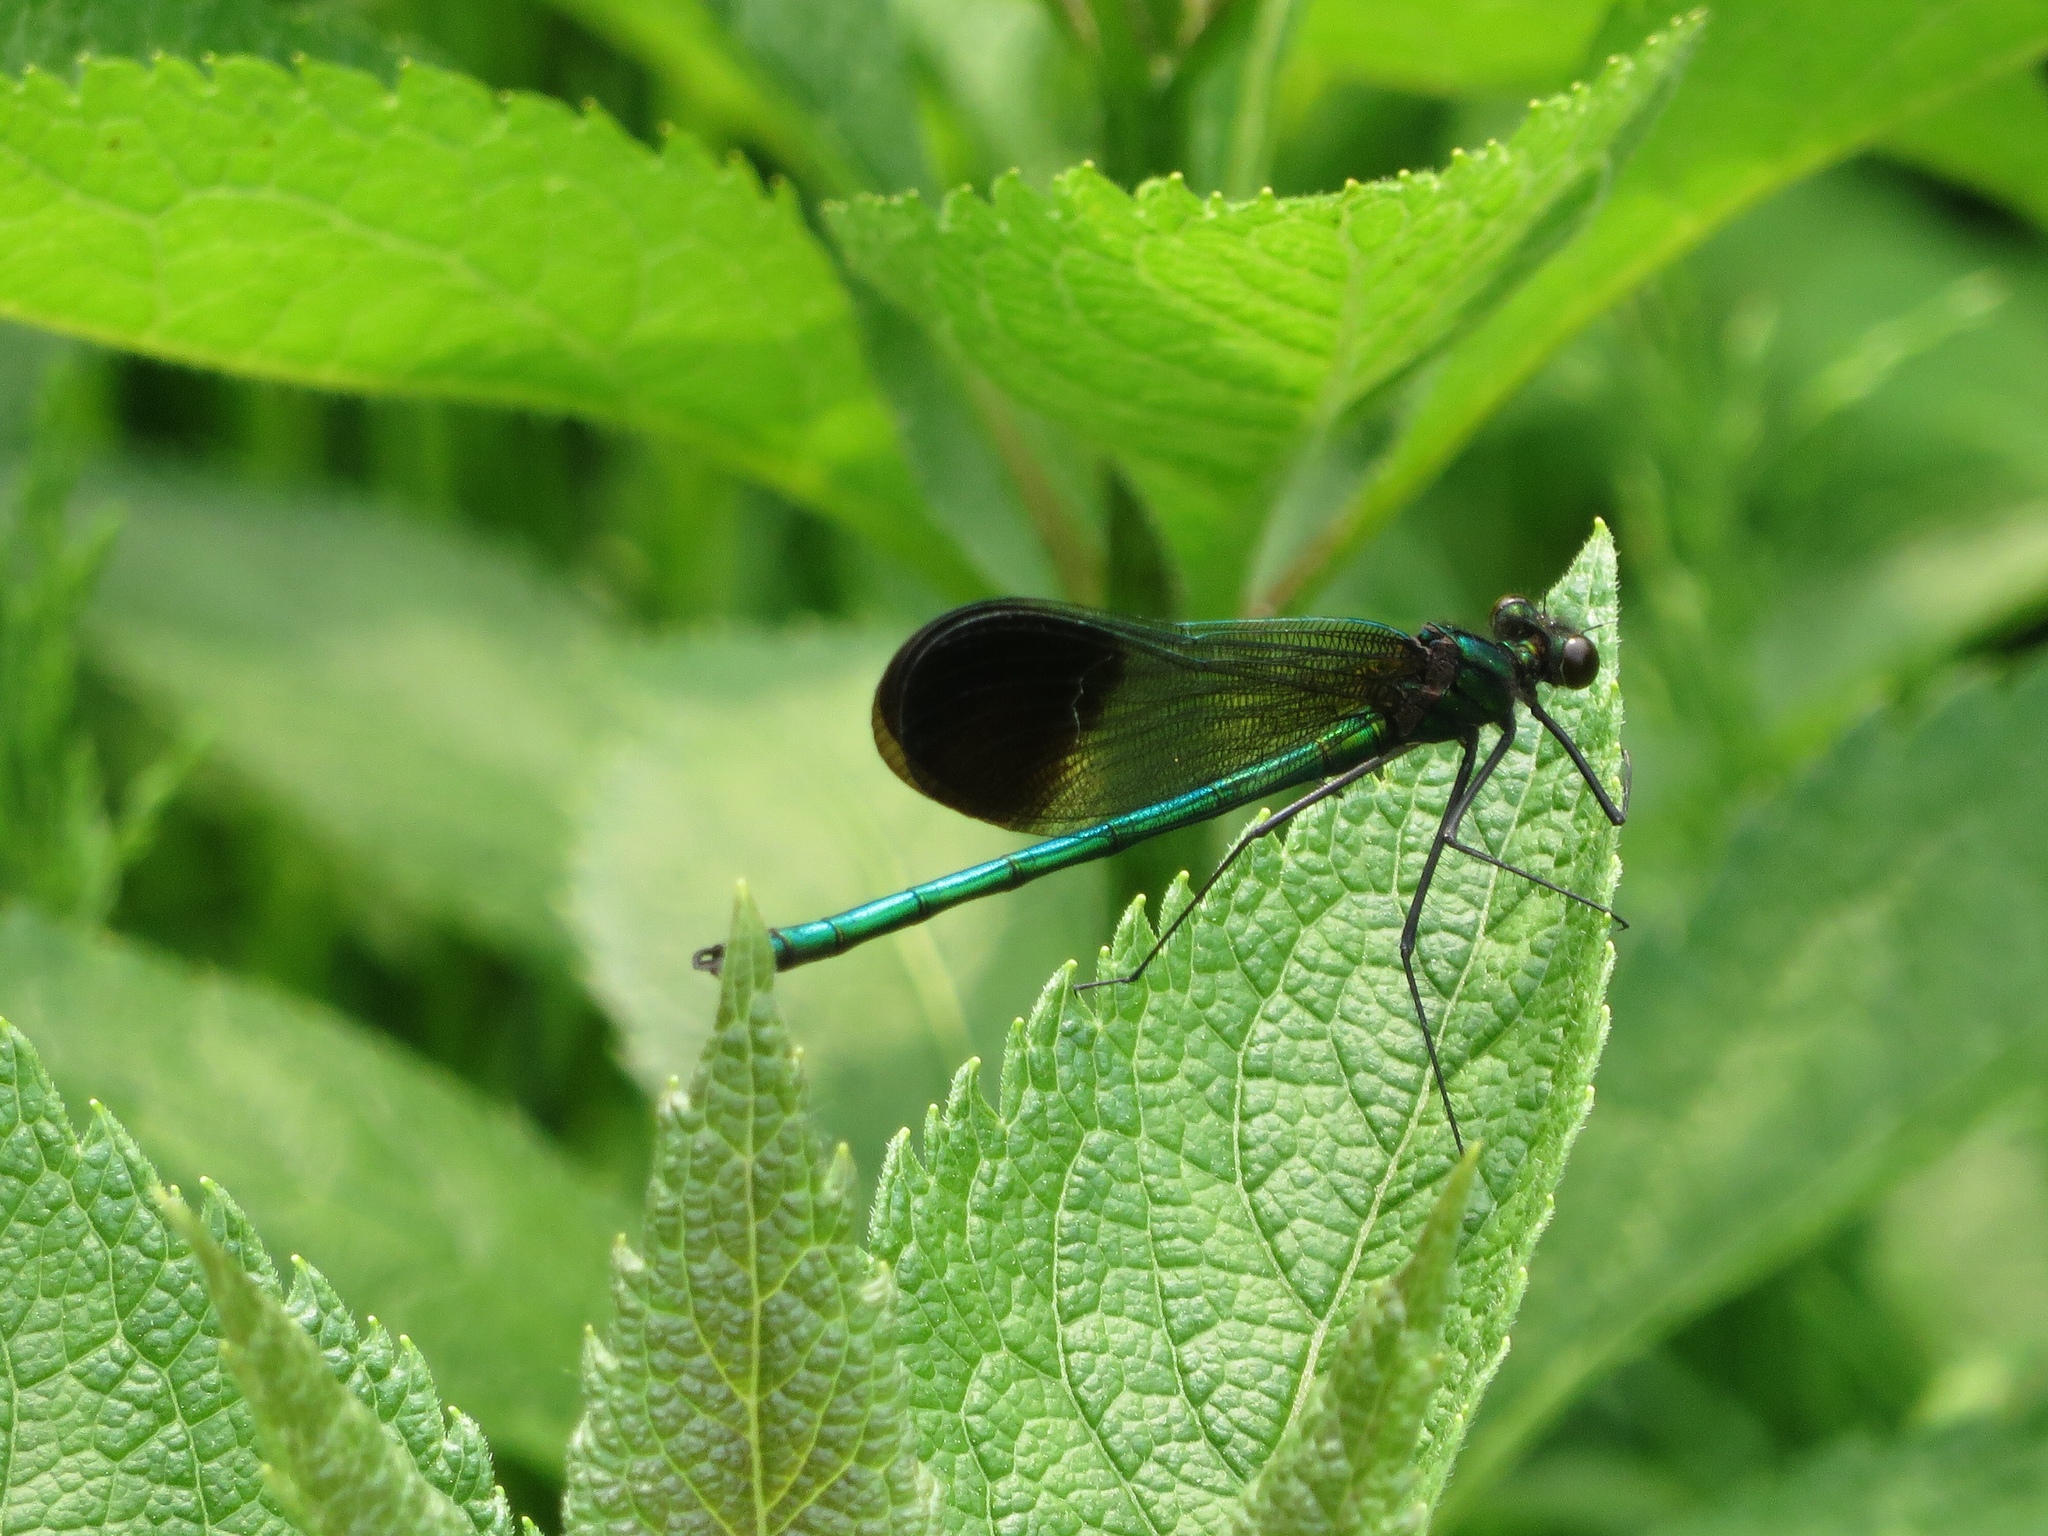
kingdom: Animalia
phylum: Arthropoda
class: Insecta
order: Odonata
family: Calopterygidae
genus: Calopteryx
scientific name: Calopteryx aequabilis
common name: River jewelwing
